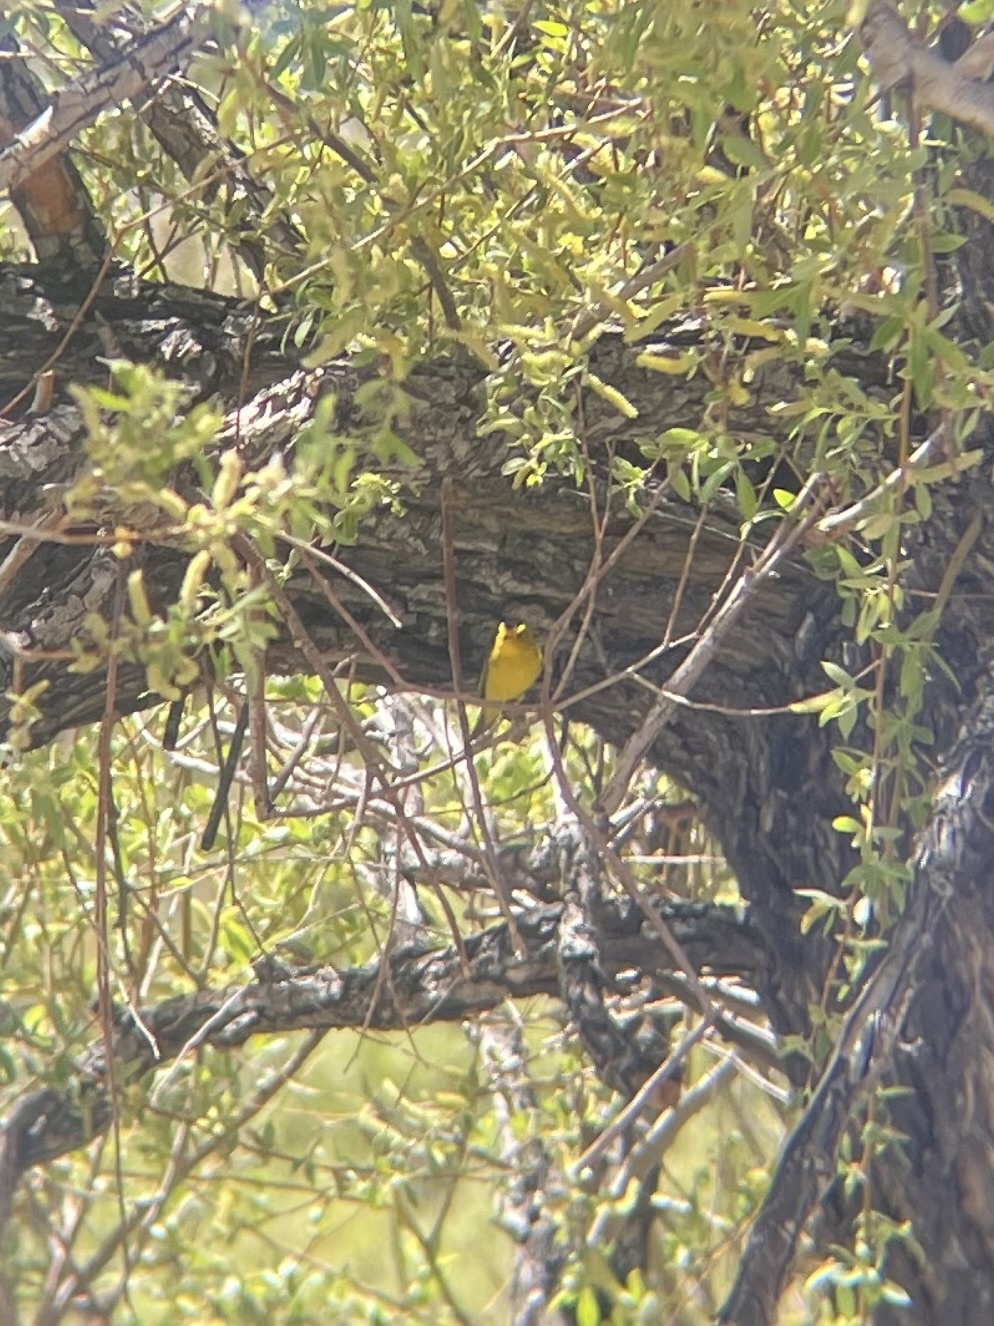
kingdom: Animalia
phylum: Chordata
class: Aves
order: Passeriformes
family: Parulidae
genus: Cardellina
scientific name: Cardellina pusilla
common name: Wilson's warbler
